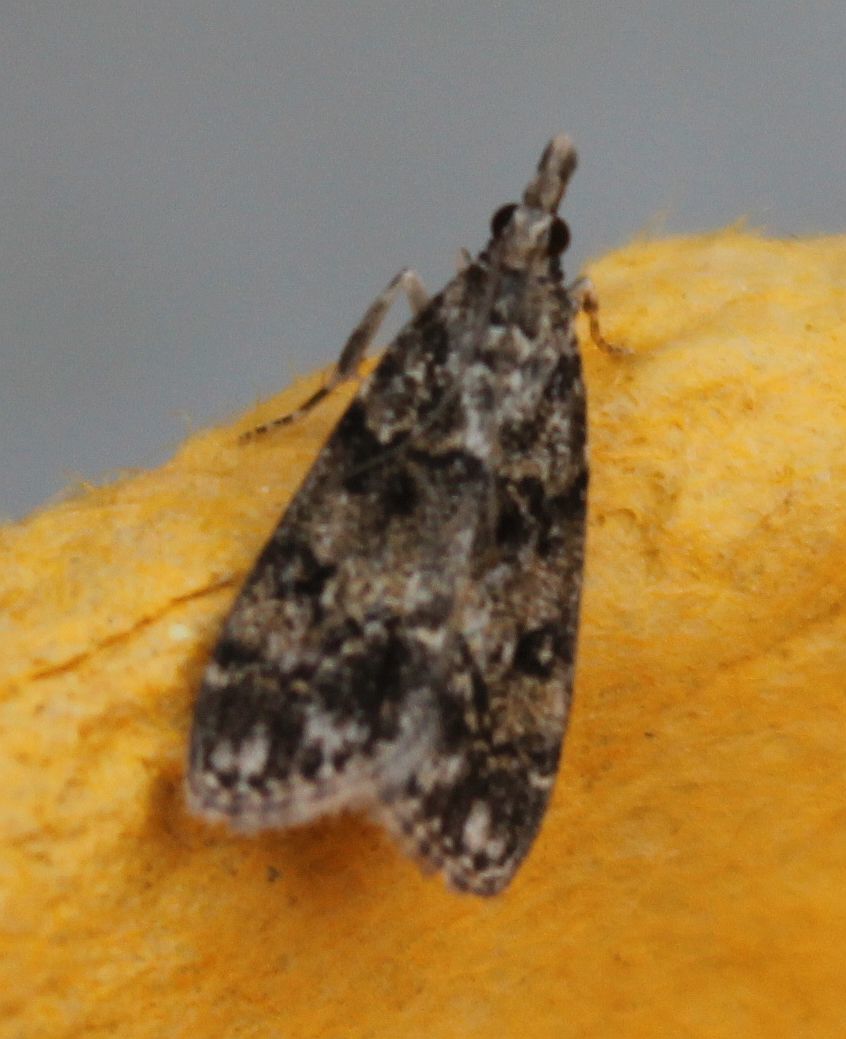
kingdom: Animalia
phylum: Arthropoda
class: Insecta
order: Lepidoptera
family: Crambidae
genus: Eudonia
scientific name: Eudonia lacustrata
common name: Little grey
